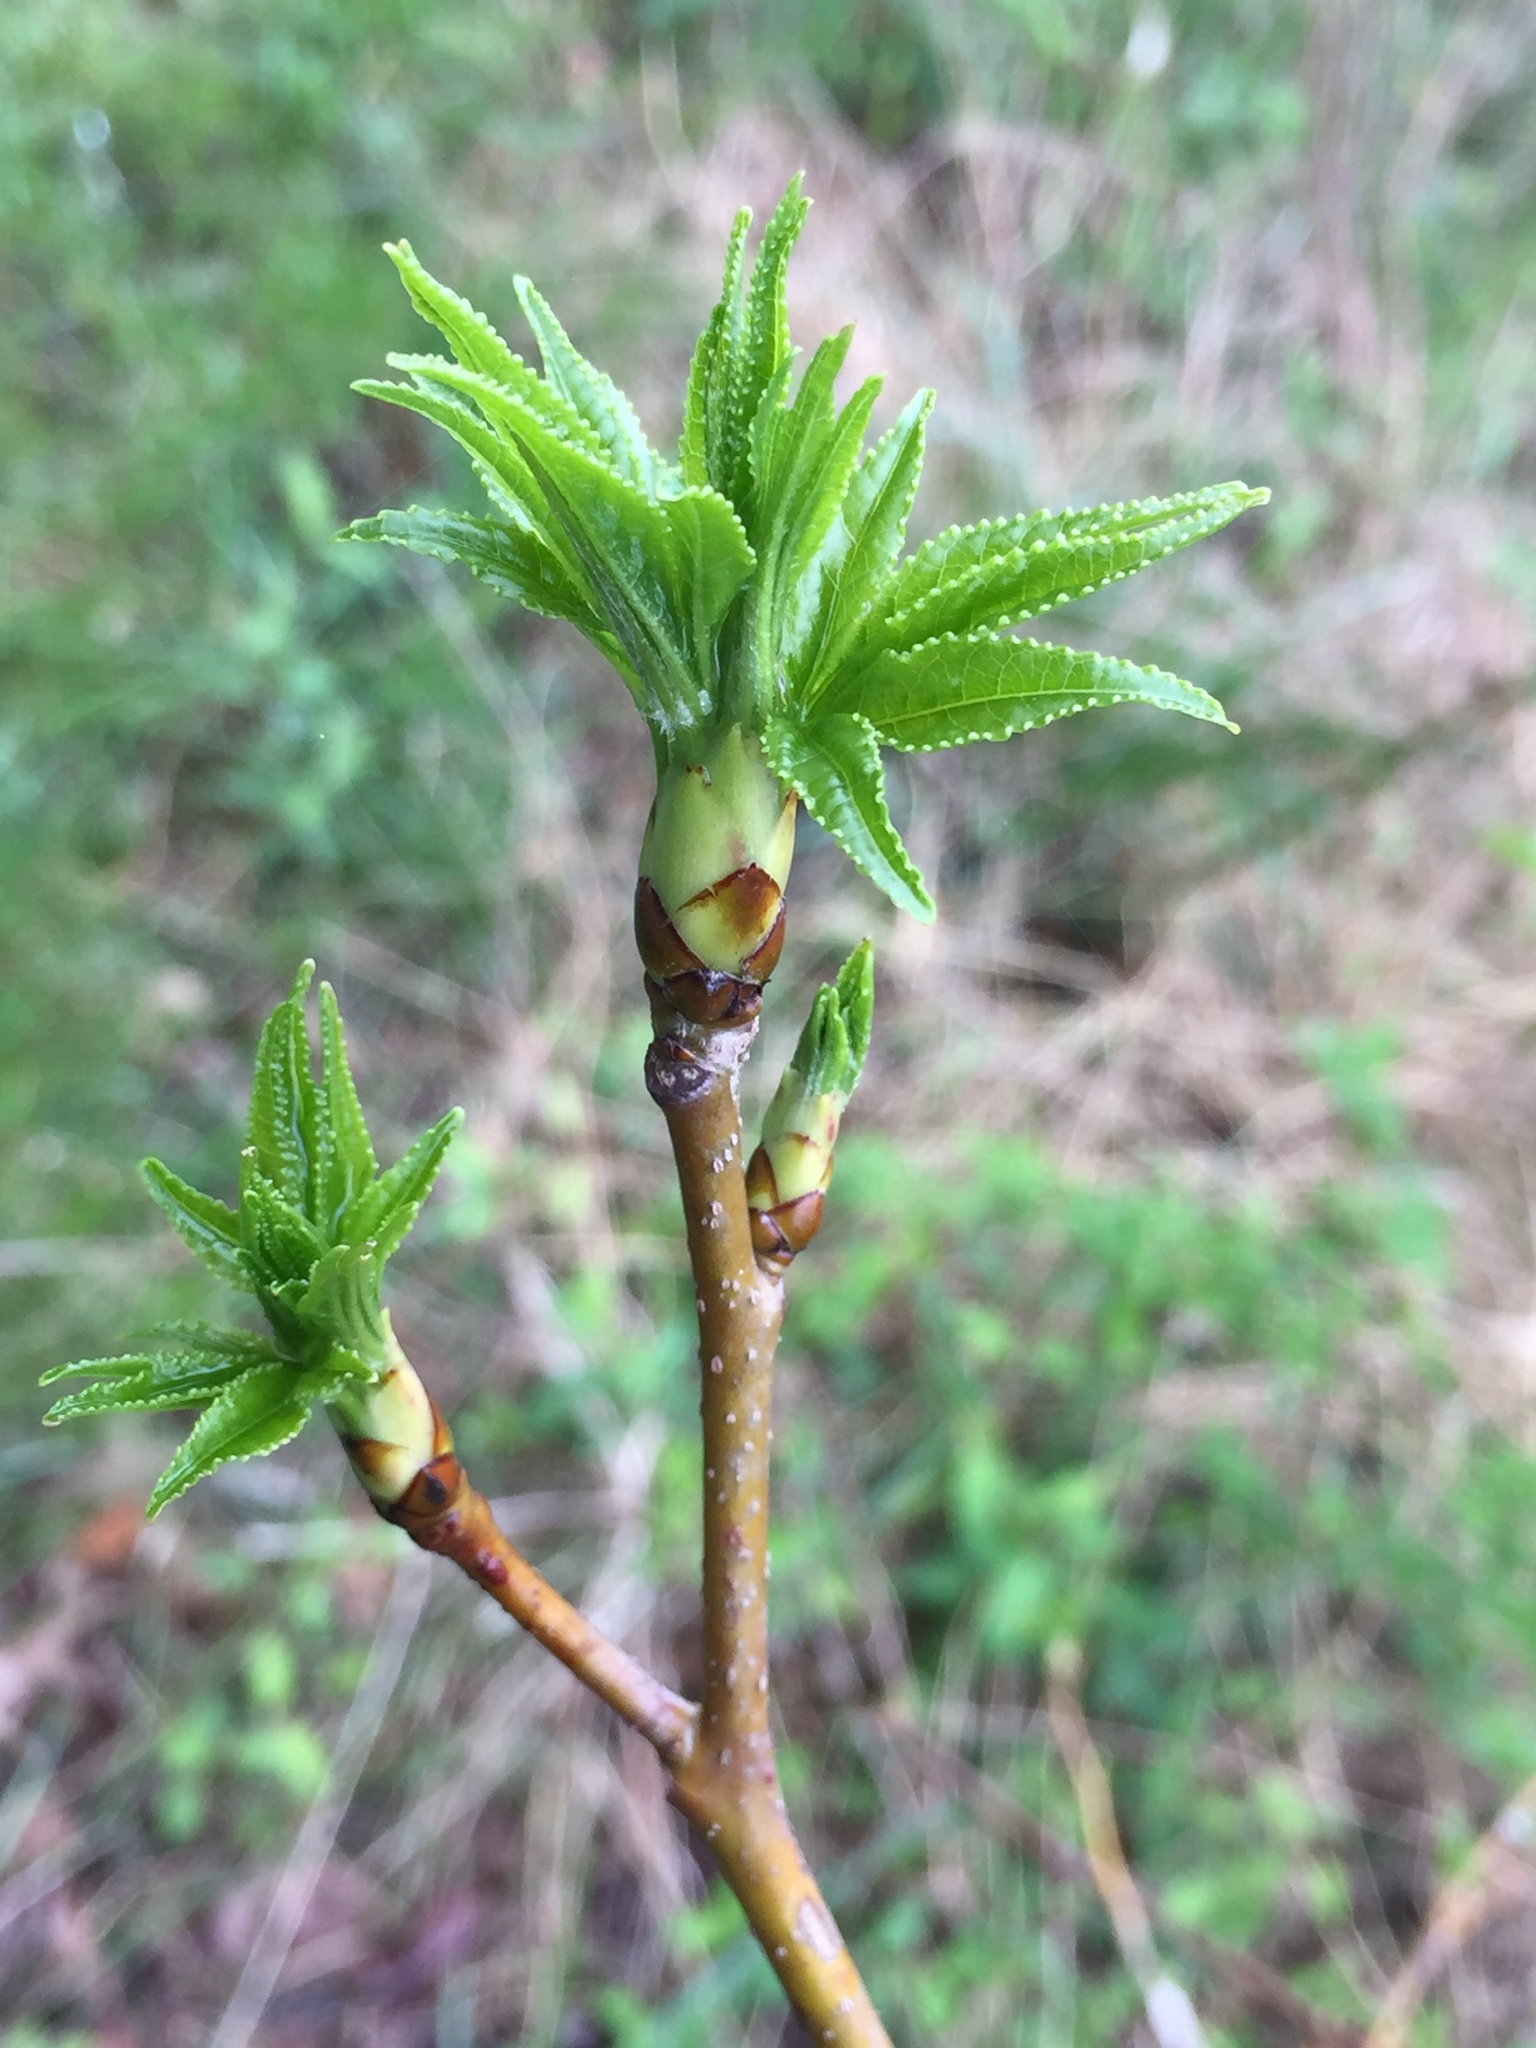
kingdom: Plantae
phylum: Tracheophyta
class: Magnoliopsida
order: Saxifragales
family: Altingiaceae
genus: Liquidambar
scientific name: Liquidambar styraciflua
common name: Sweet gum
